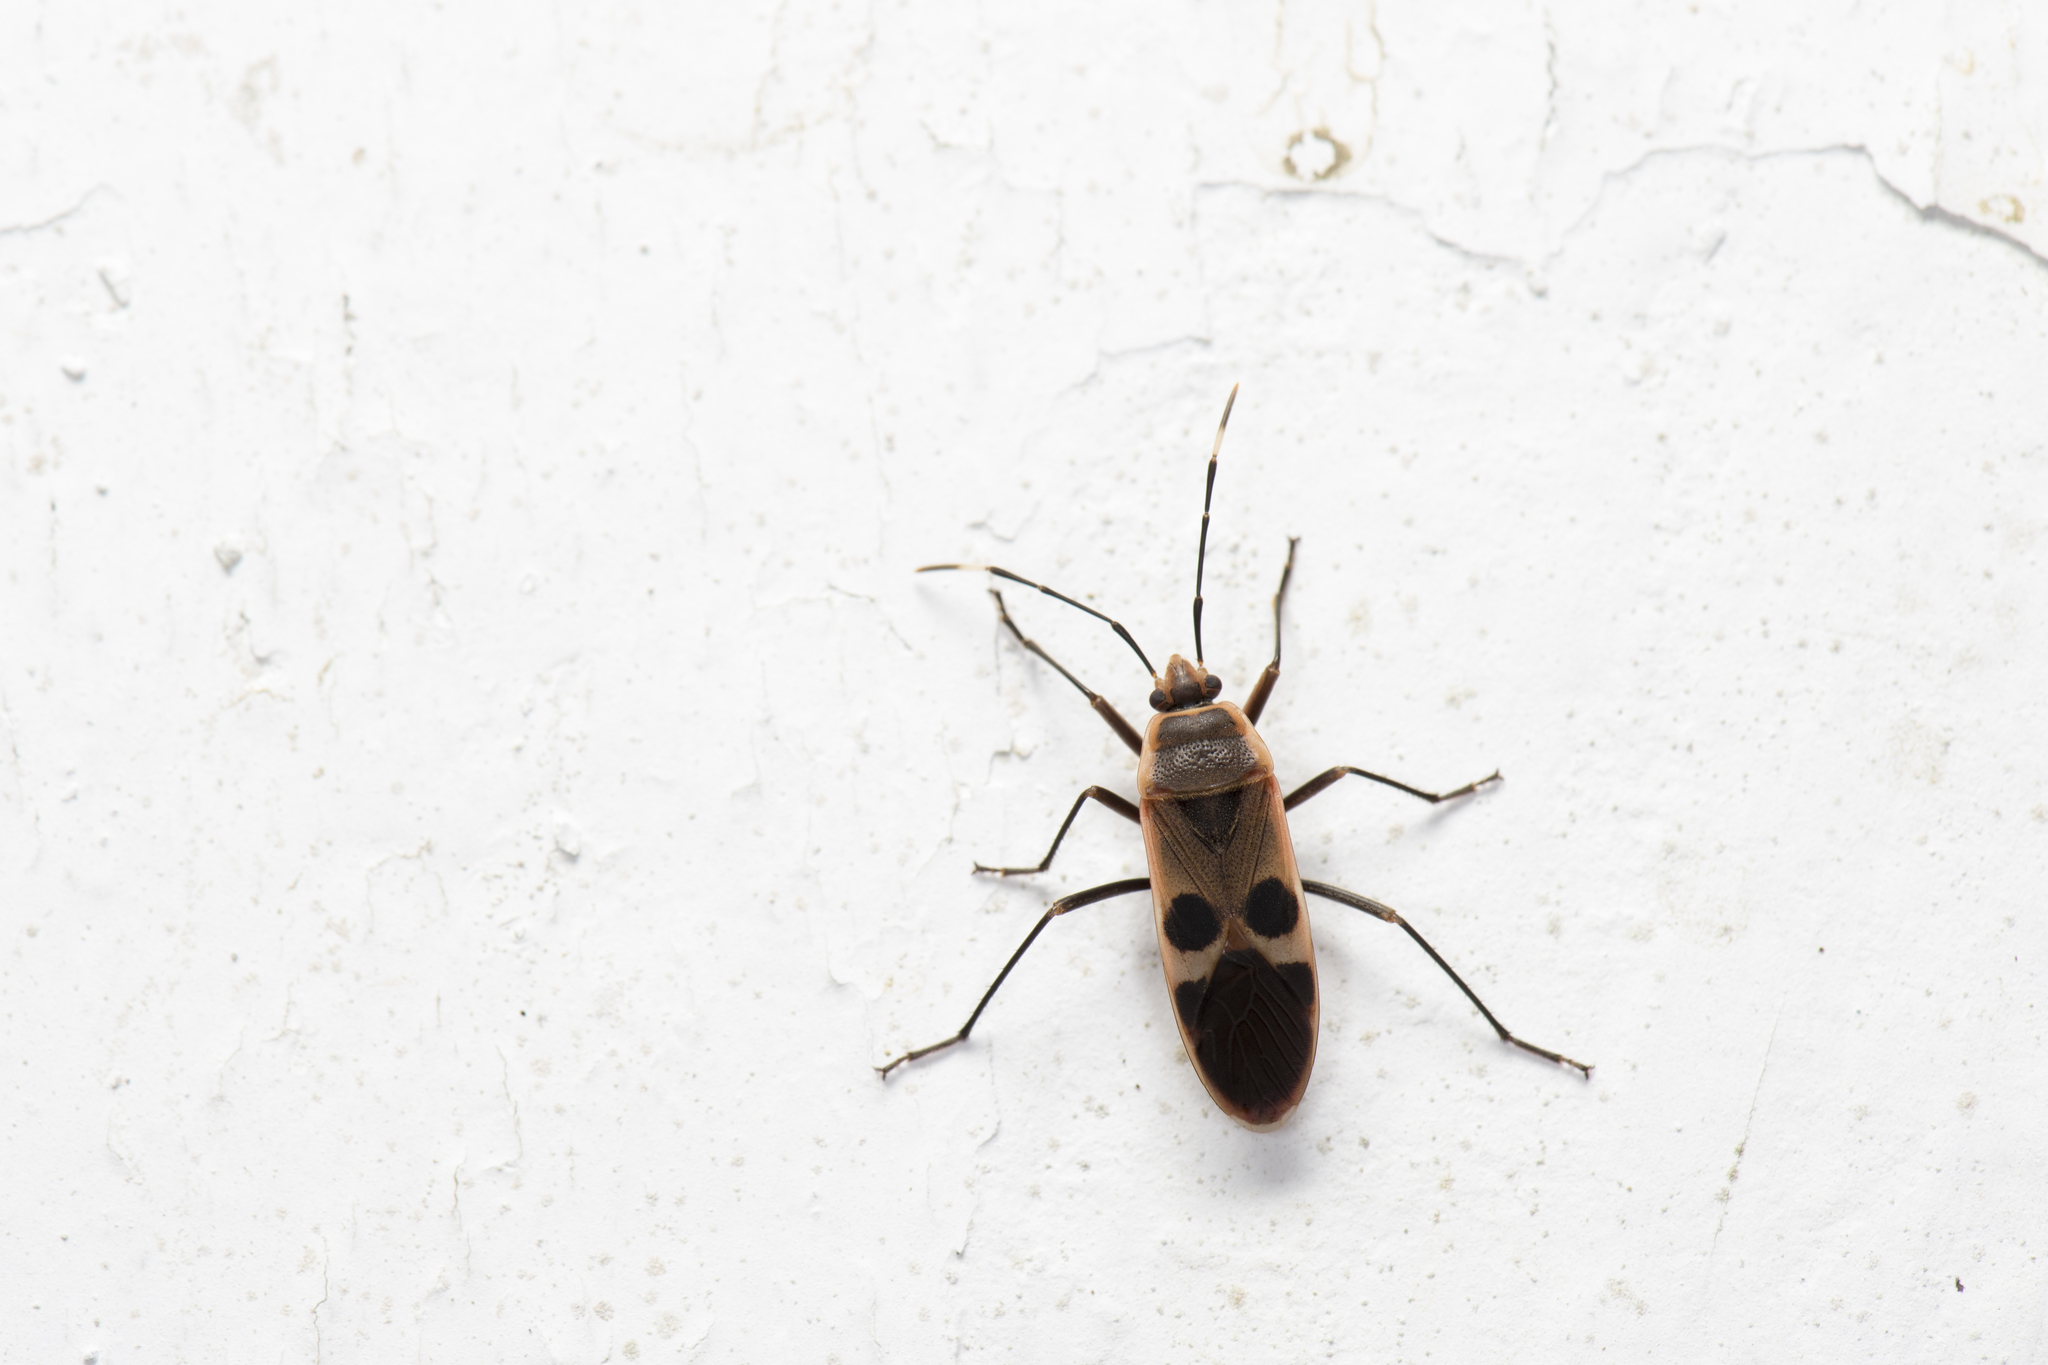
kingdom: Animalia
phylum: Arthropoda
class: Insecta
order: Hemiptera
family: Largidae
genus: Physopelta
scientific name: Physopelta gutta
